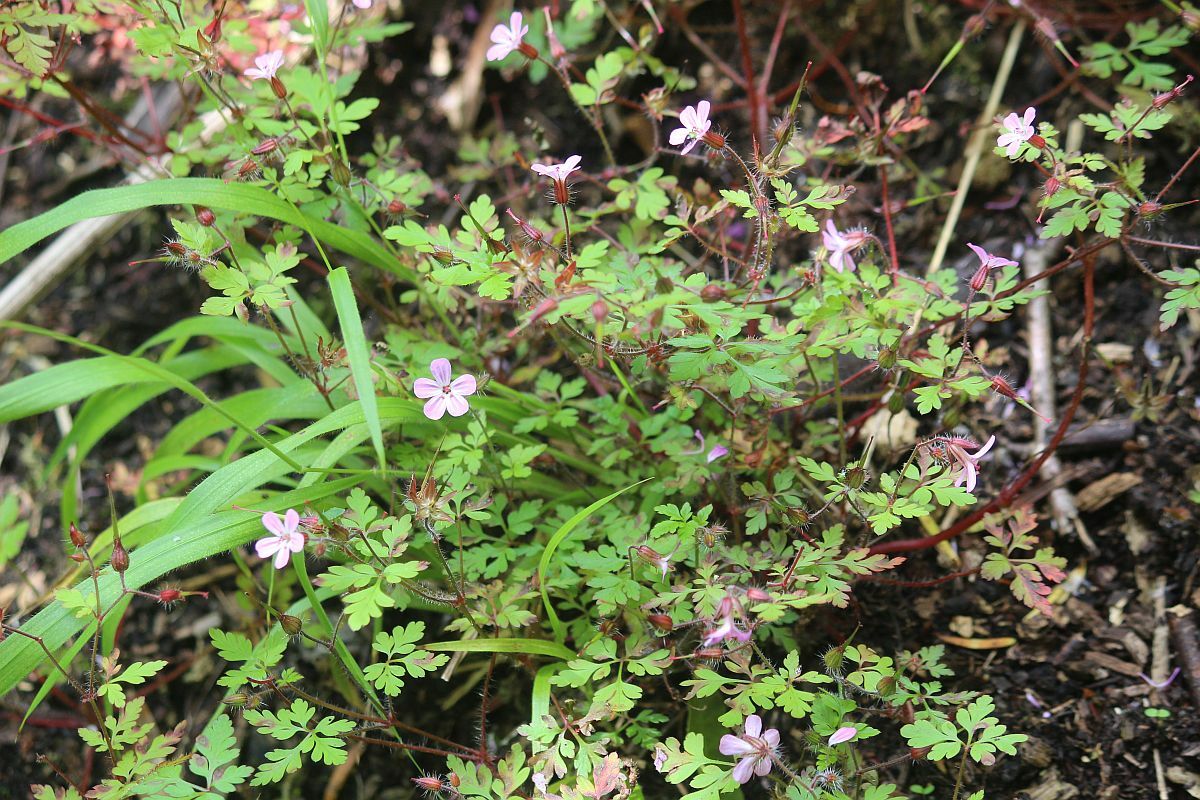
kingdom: Plantae
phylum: Tracheophyta
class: Magnoliopsida
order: Geraniales
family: Geraniaceae
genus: Geranium
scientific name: Geranium robertianum
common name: Herb-robert
